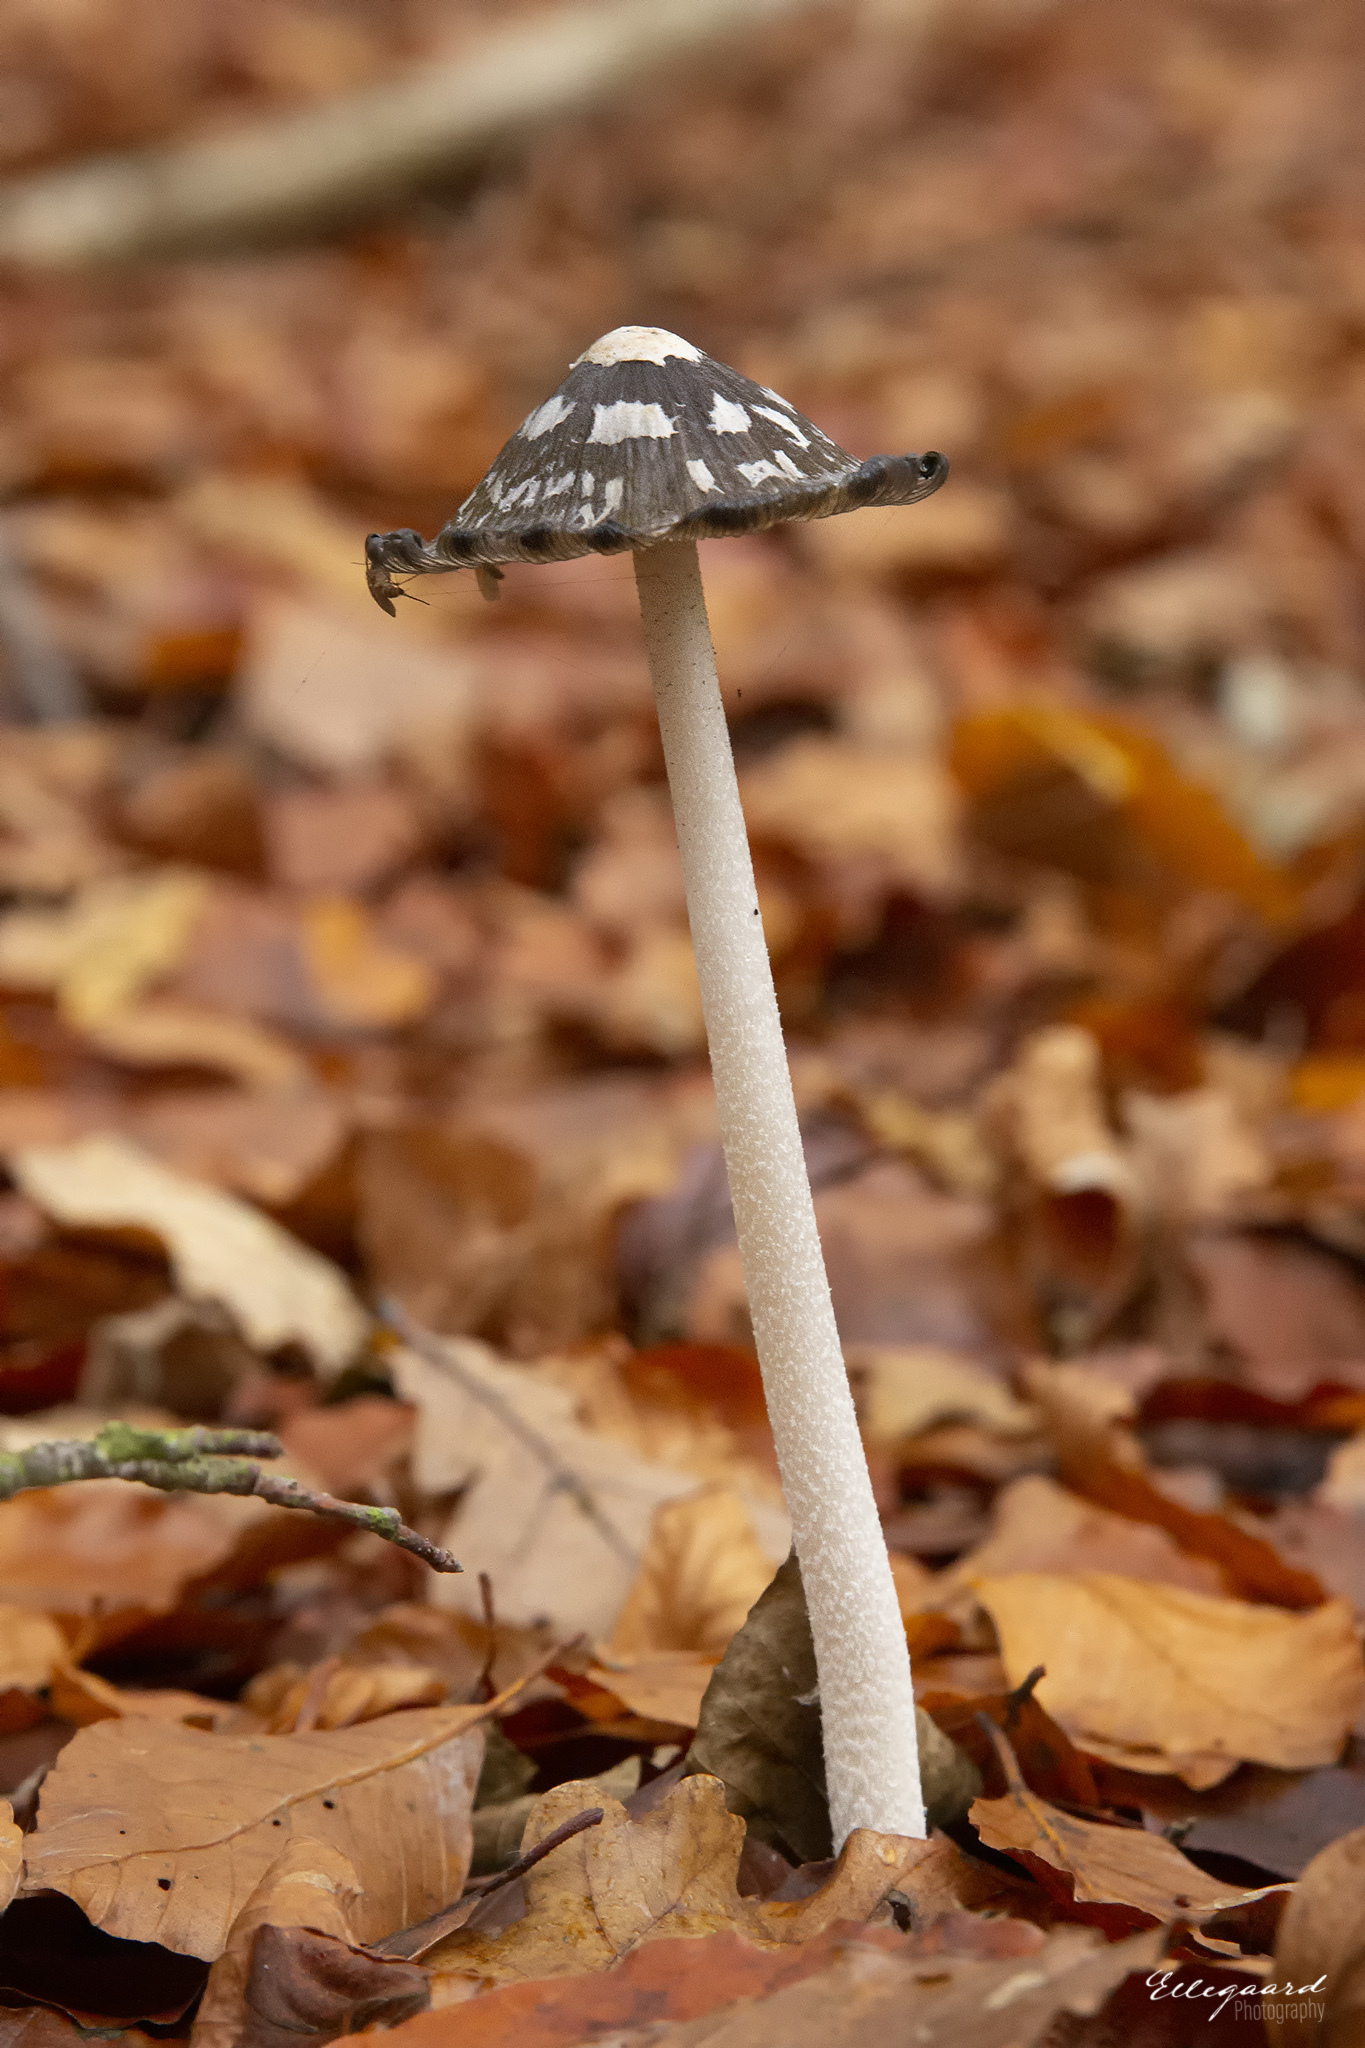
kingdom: Fungi
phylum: Basidiomycota
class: Agaricomycetes
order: Agaricales
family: Psathyrellaceae
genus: Coprinopsis
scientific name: Coprinopsis picacea
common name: Magpie inkcap
